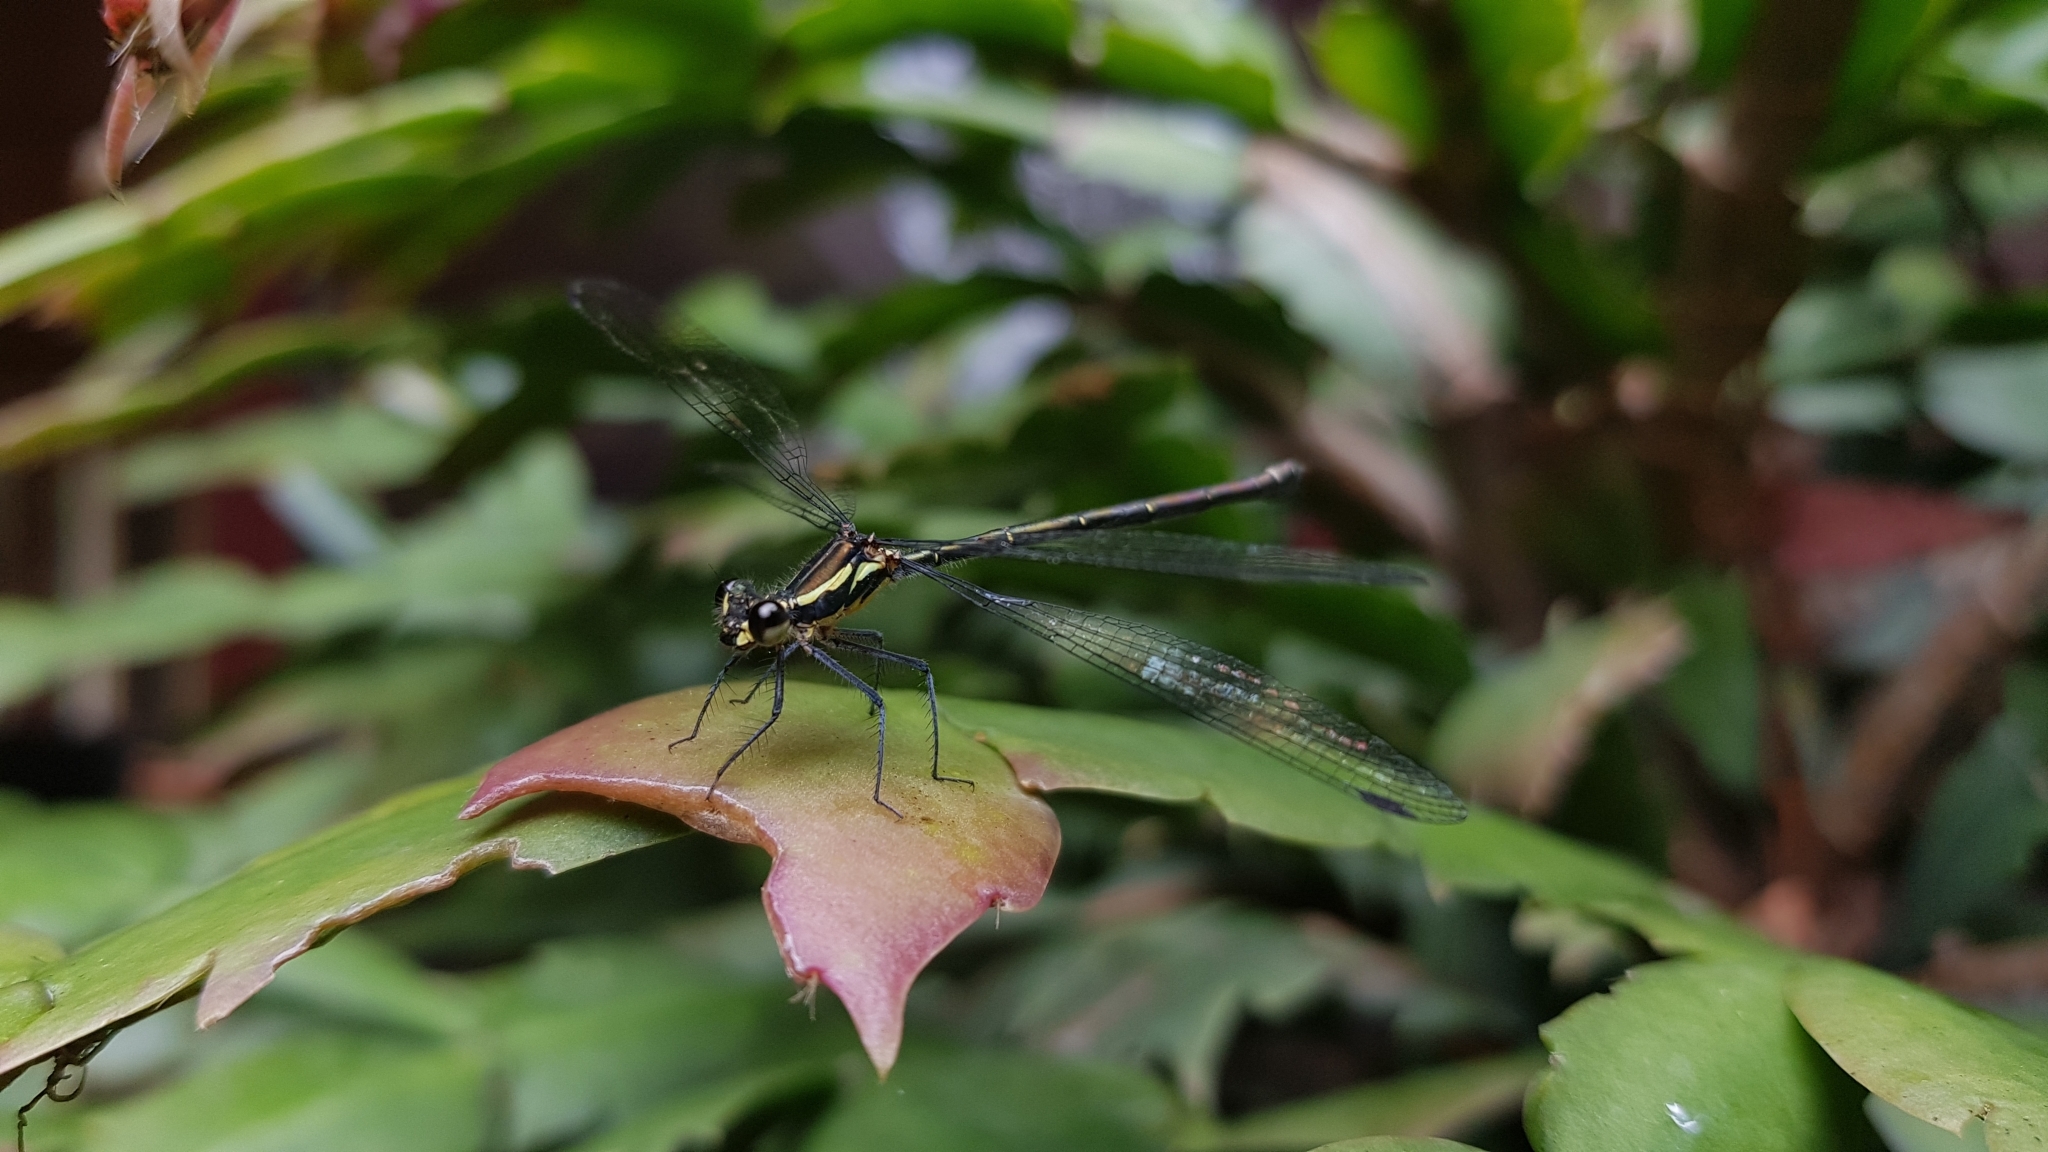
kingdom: Animalia
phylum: Arthropoda
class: Insecta
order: Odonata
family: Argiolestidae
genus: Austroargiolestes
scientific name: Austroargiolestes icteromelas
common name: Common flatwing
